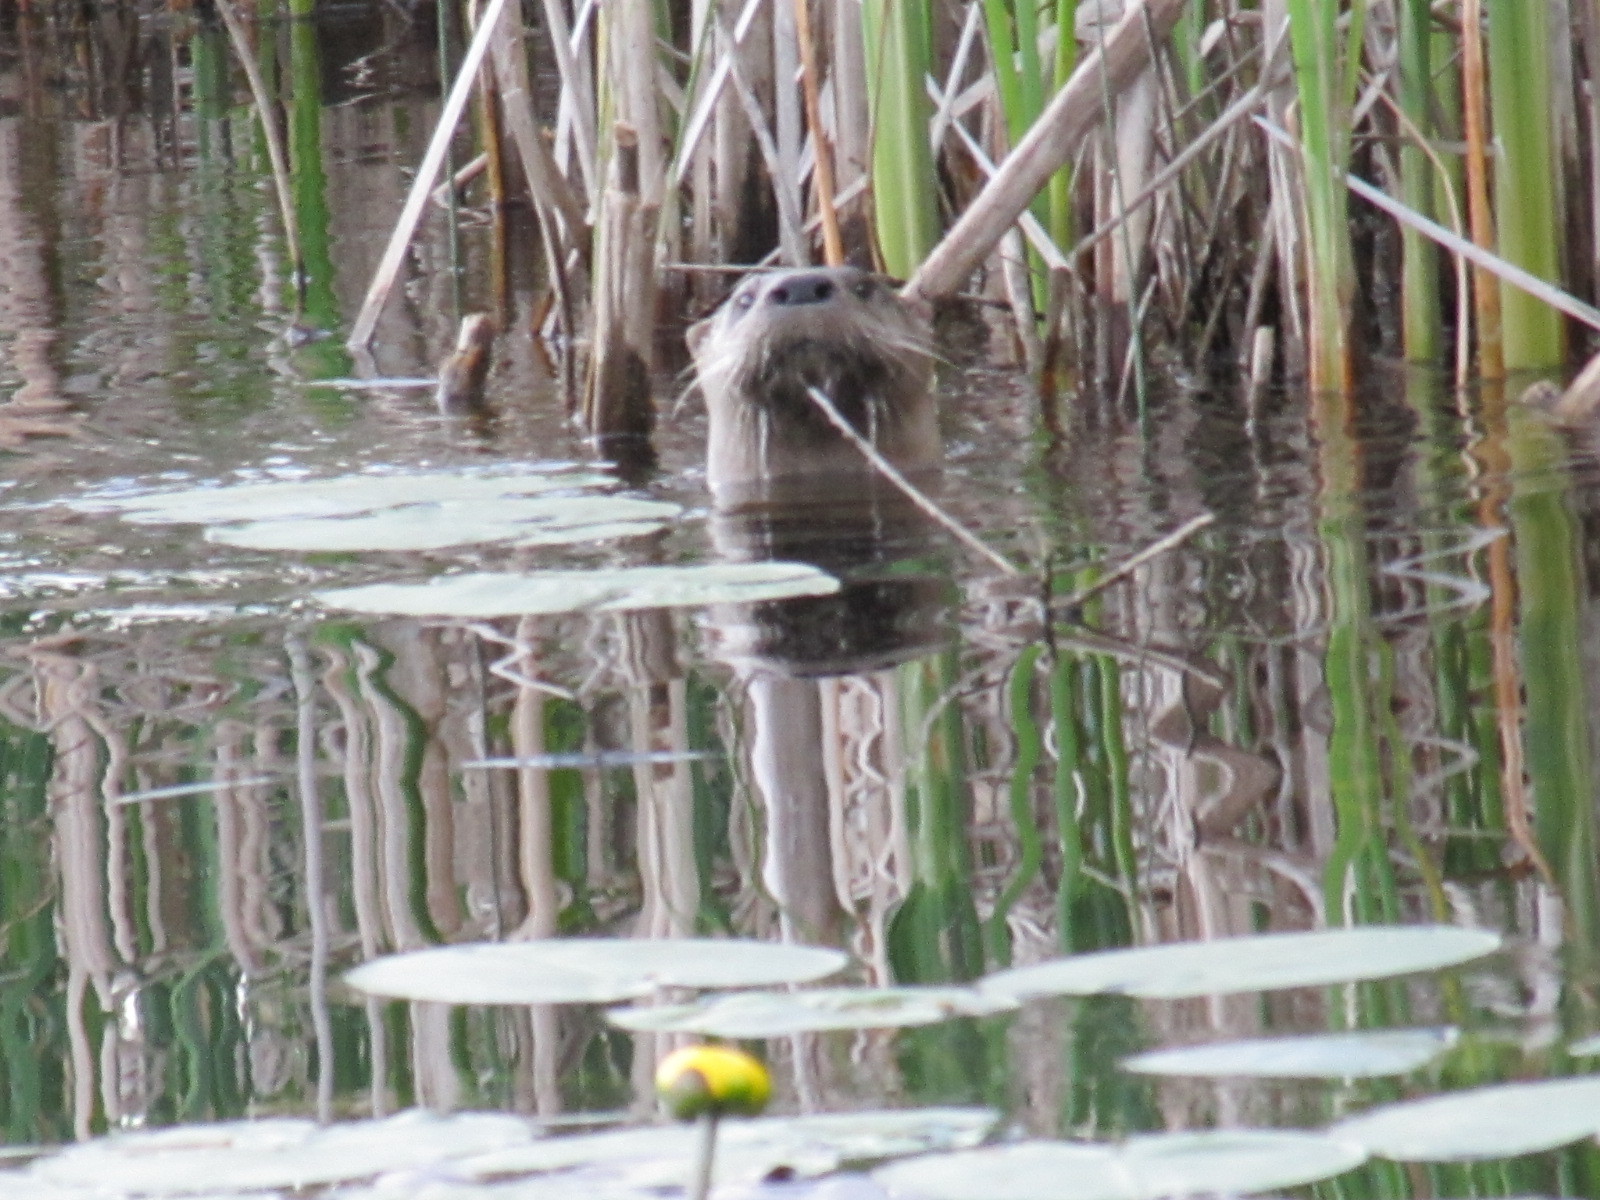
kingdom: Animalia
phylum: Chordata
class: Mammalia
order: Carnivora
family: Mustelidae
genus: Lontra
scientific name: Lontra canadensis
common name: North american river otter
